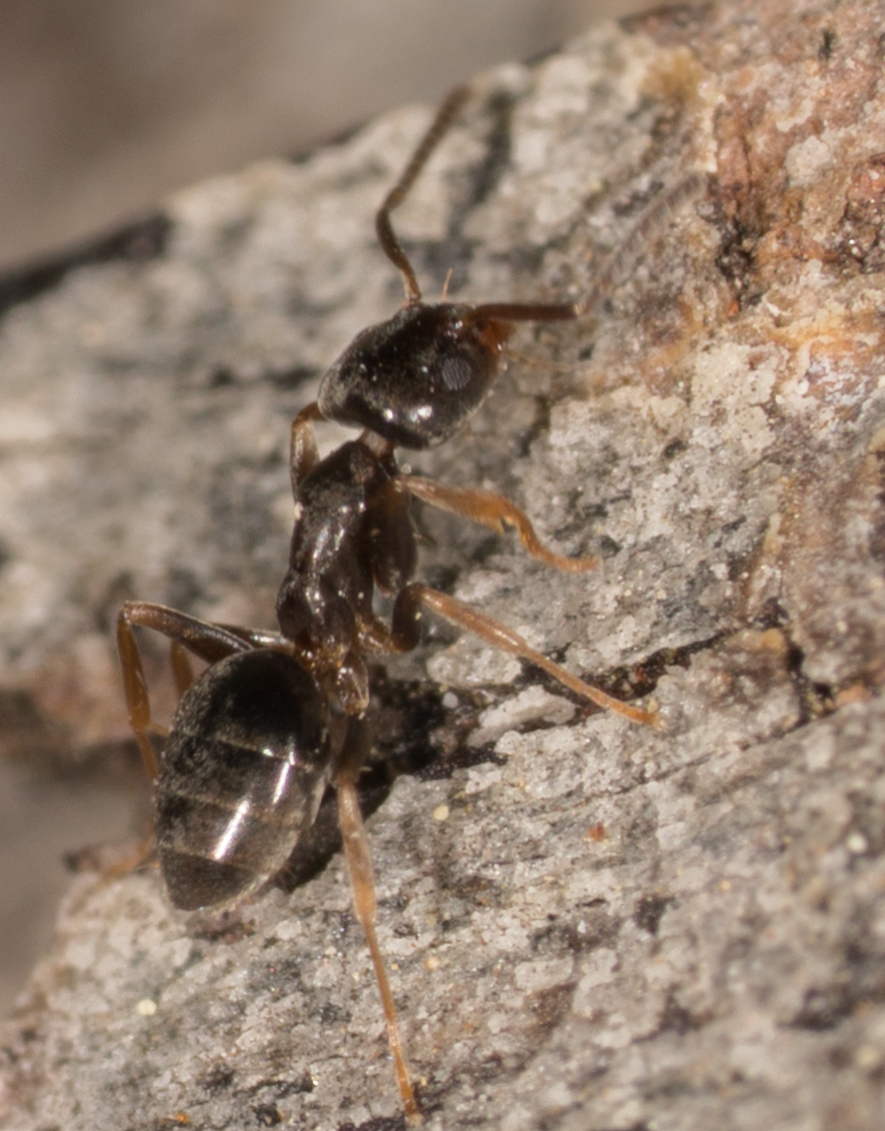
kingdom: Animalia
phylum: Arthropoda
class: Insecta
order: Hymenoptera
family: Formicidae
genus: Tapinoma
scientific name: Tapinoma sessile
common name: Odorous house ant
